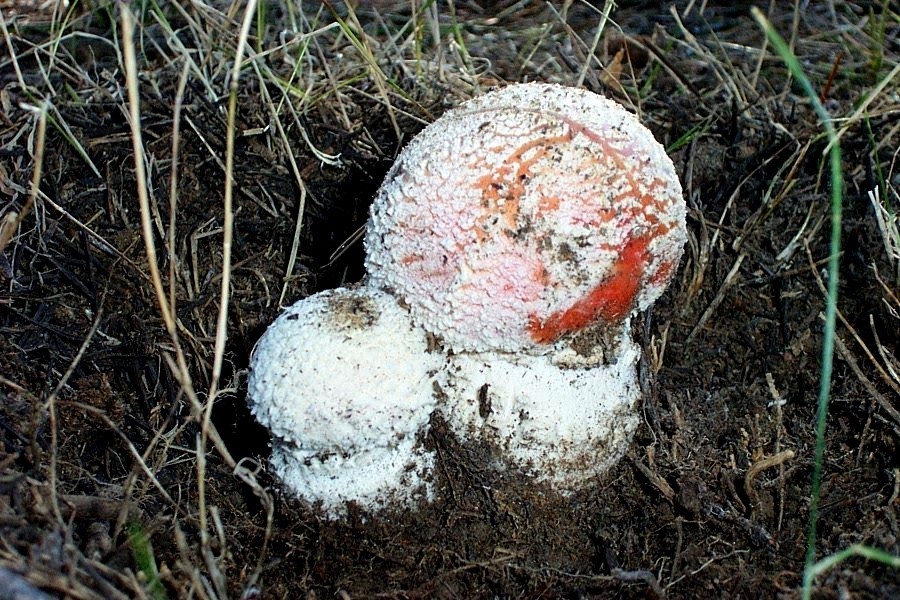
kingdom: Fungi
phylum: Basidiomycota
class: Agaricomycetes
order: Agaricales
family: Amanitaceae
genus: Amanita
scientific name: Amanita muscaria
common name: Fly agaric
